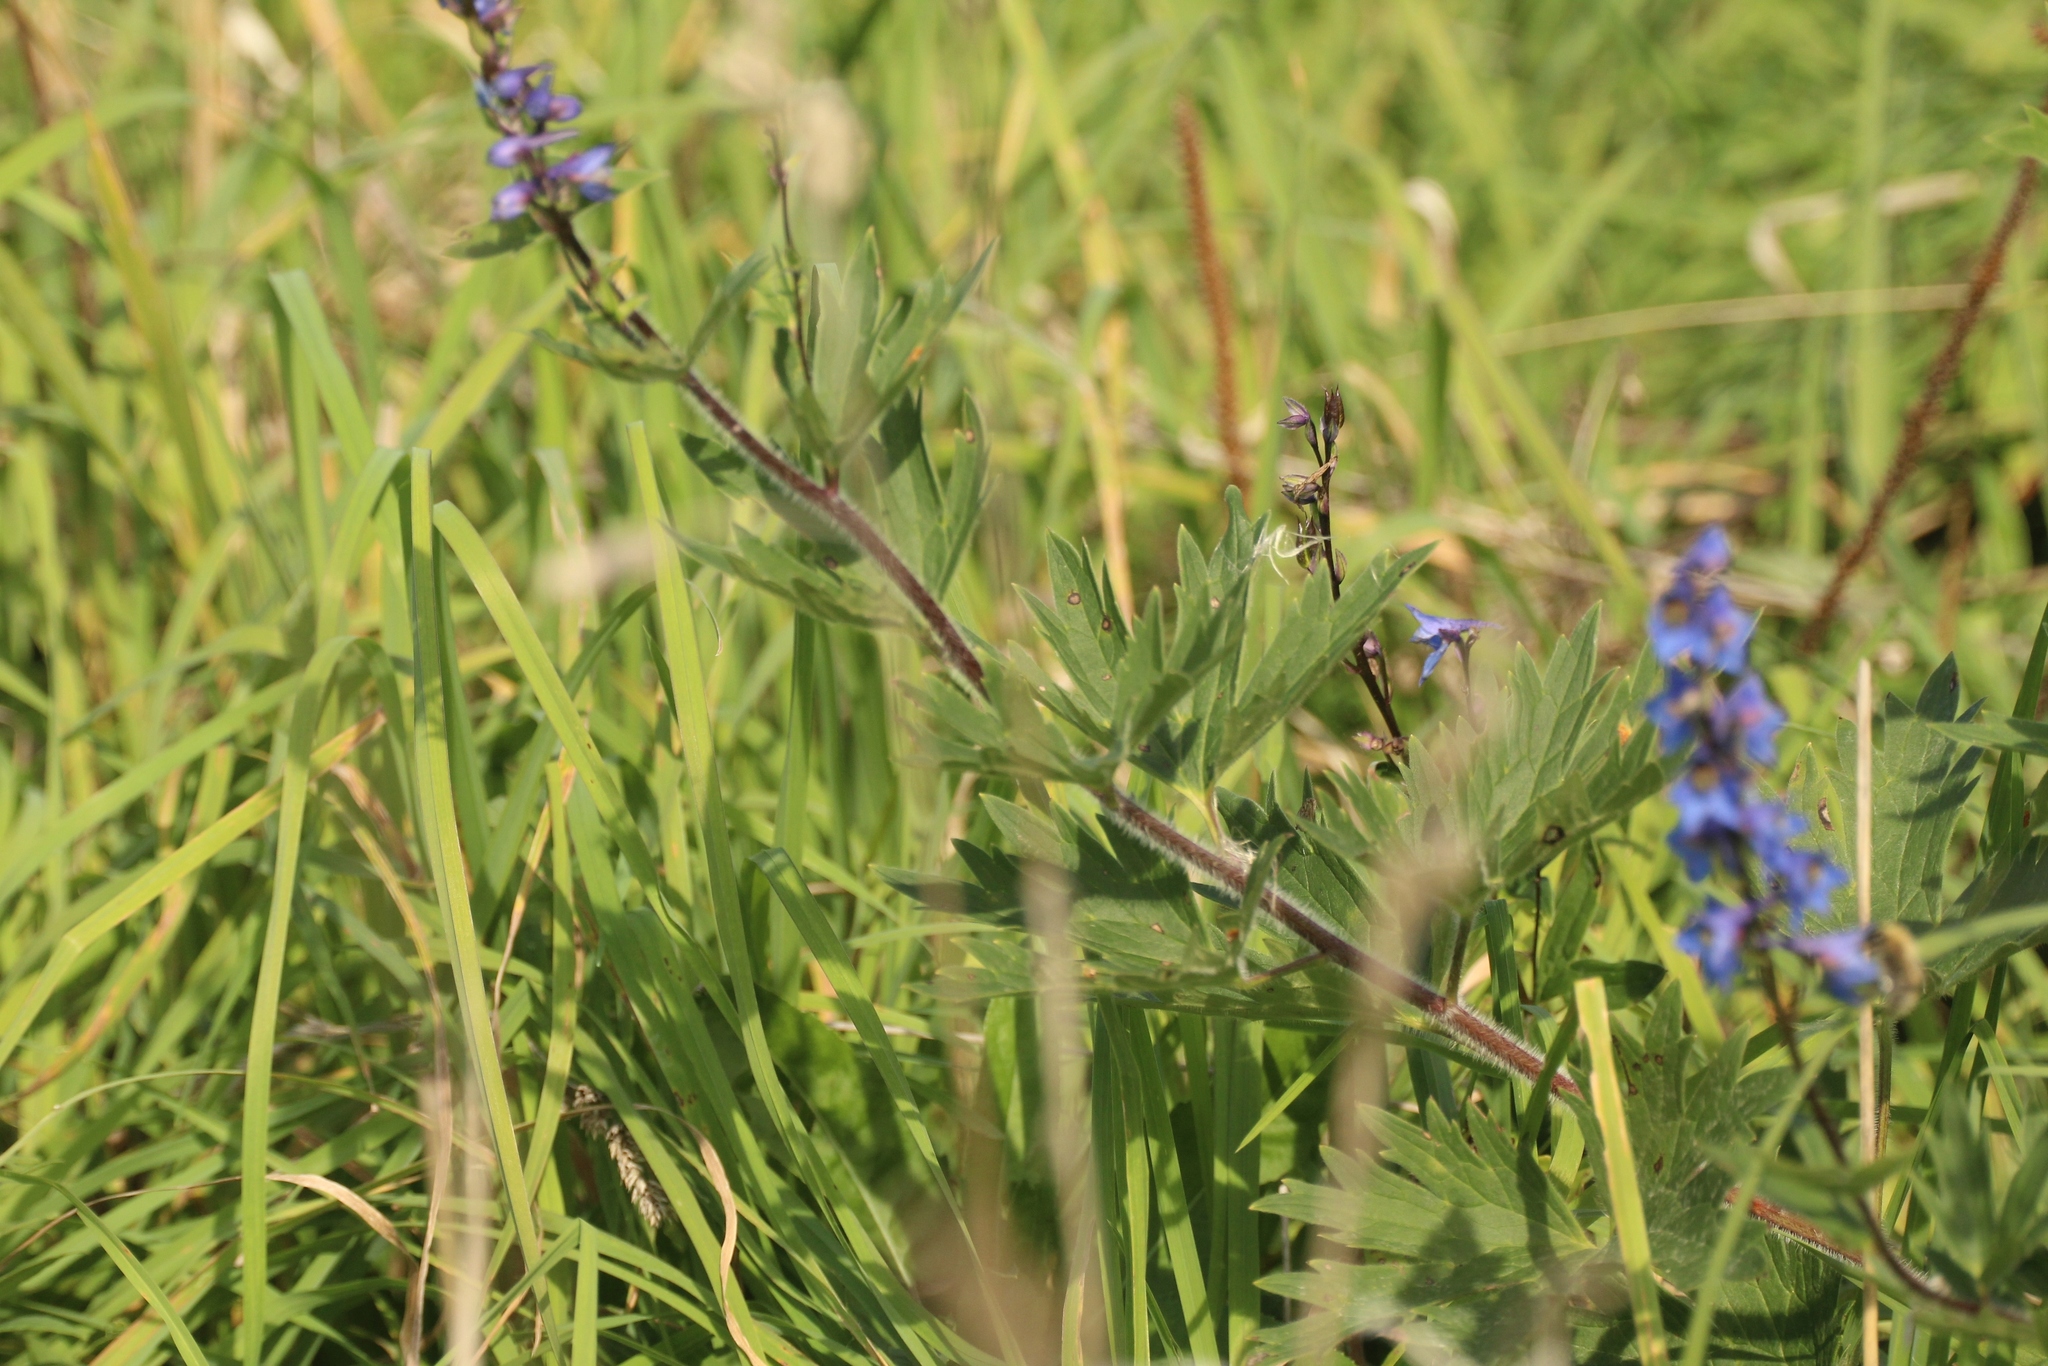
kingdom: Plantae
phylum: Tracheophyta
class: Magnoliopsida
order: Ranunculales
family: Ranunculaceae
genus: Delphinium
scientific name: Delphinium retropilosum
